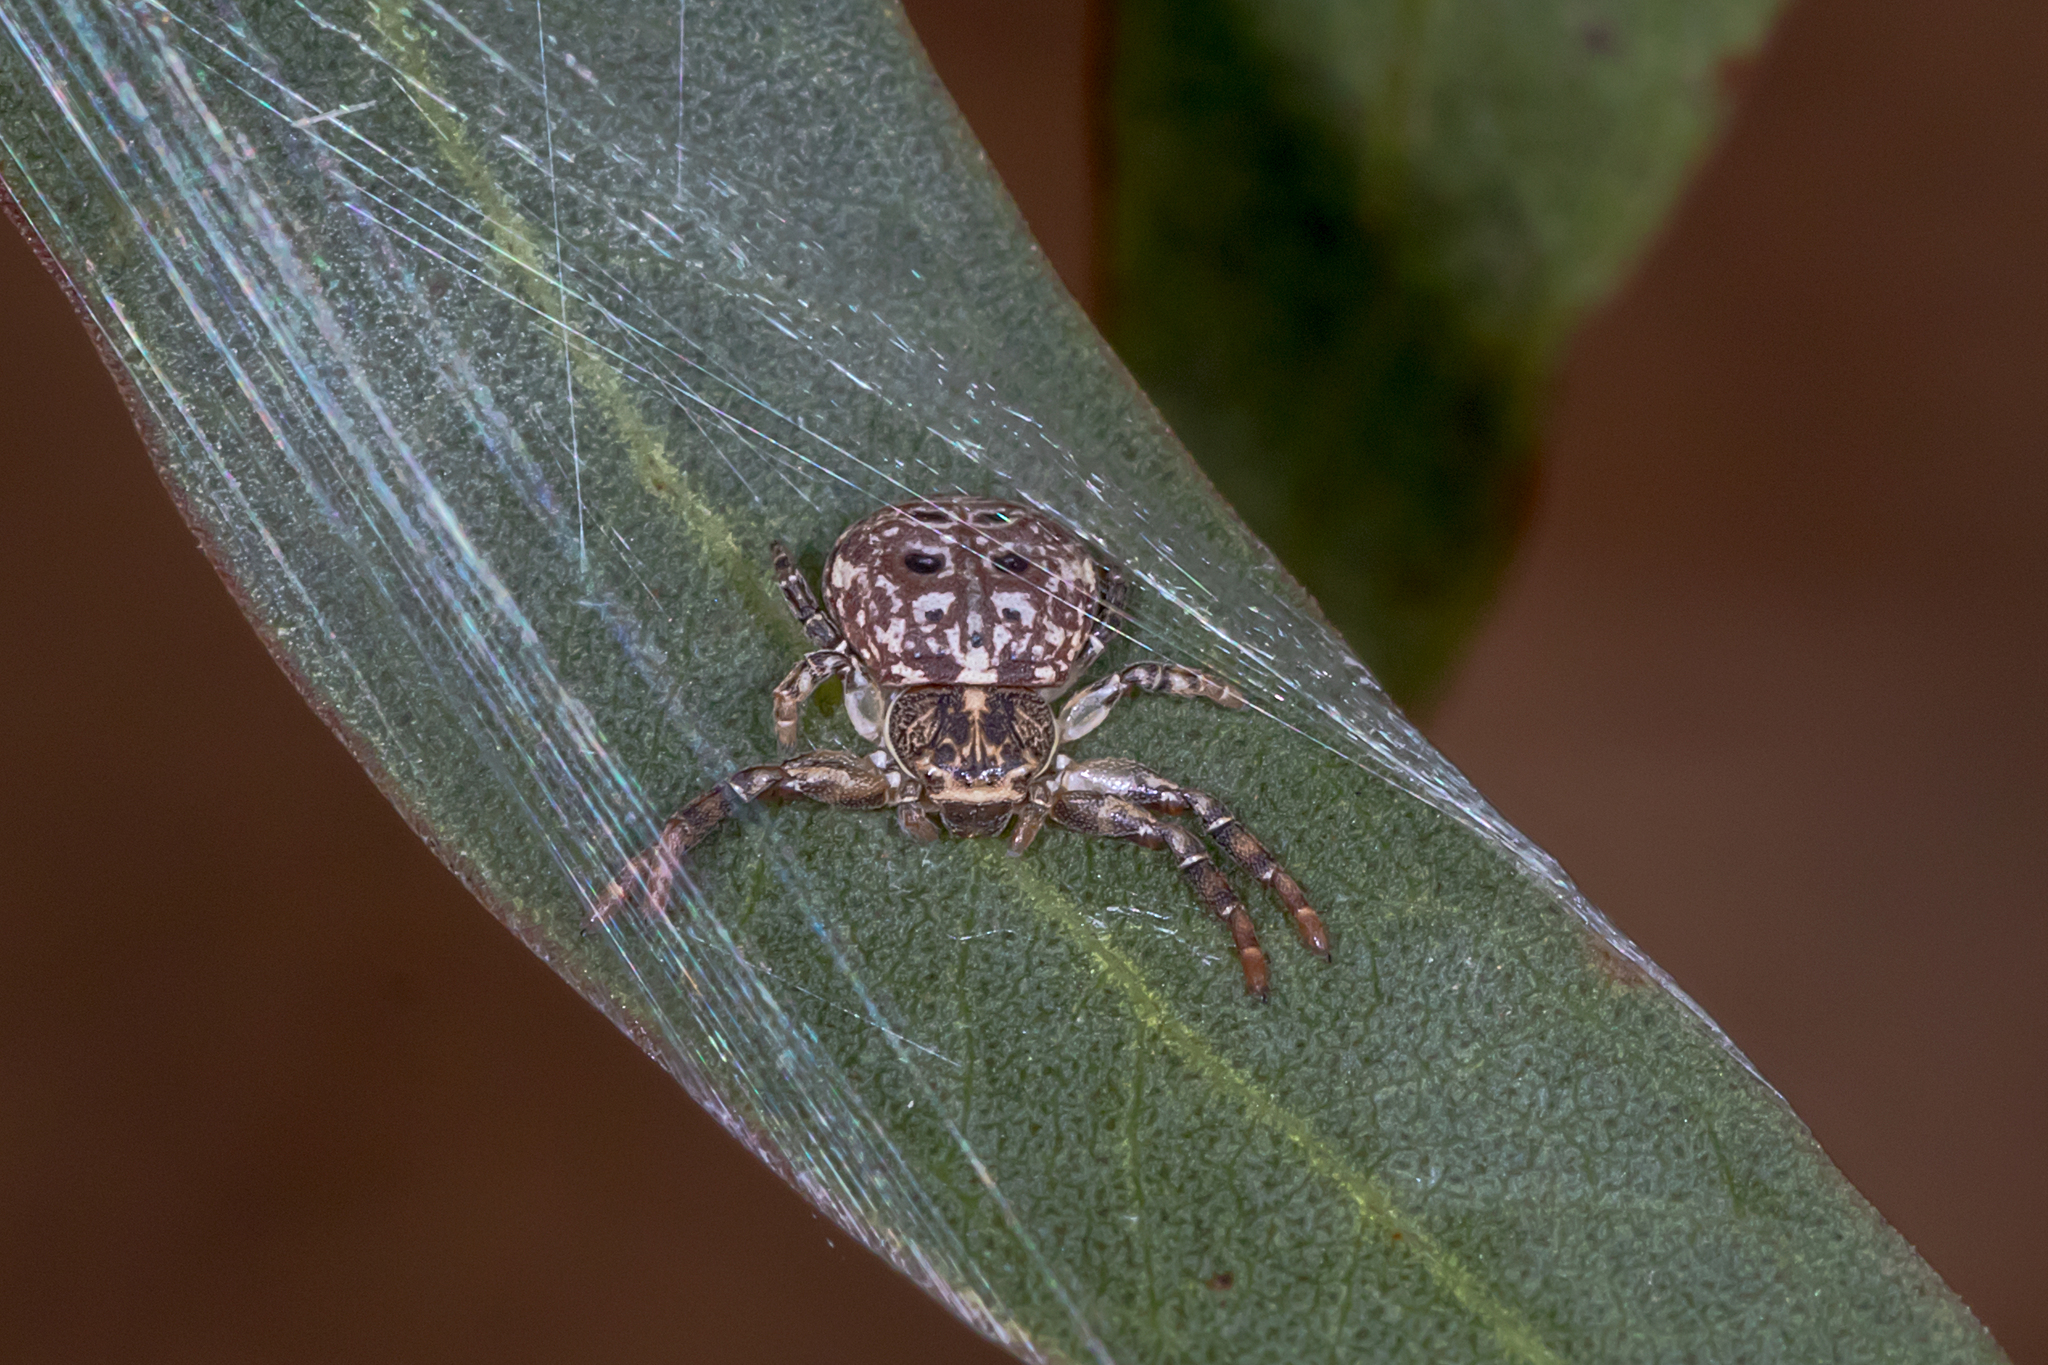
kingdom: Animalia
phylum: Arthropoda
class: Arachnida
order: Araneae
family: Thomisidae
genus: Cymbacha
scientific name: Cymbacha ocellata
